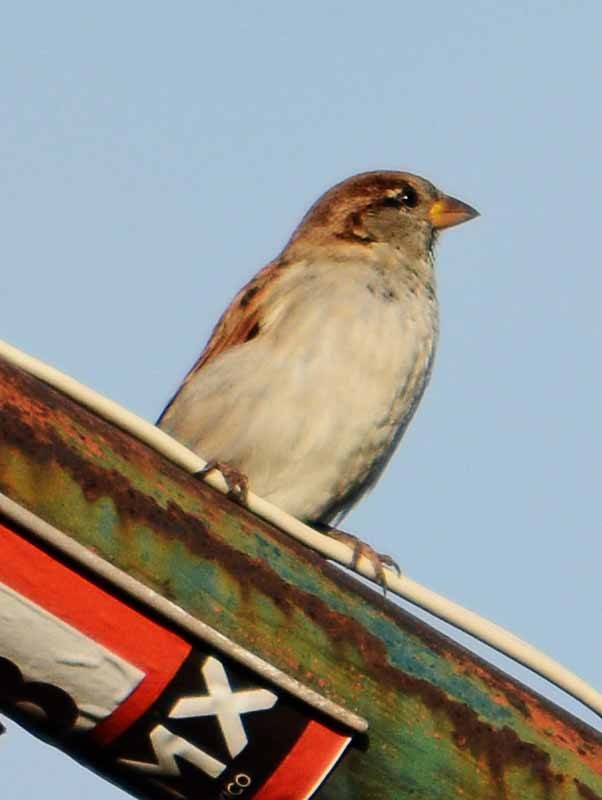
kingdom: Animalia
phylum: Chordata
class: Aves
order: Passeriformes
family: Passeridae
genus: Passer
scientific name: Passer domesticus
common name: House sparrow
